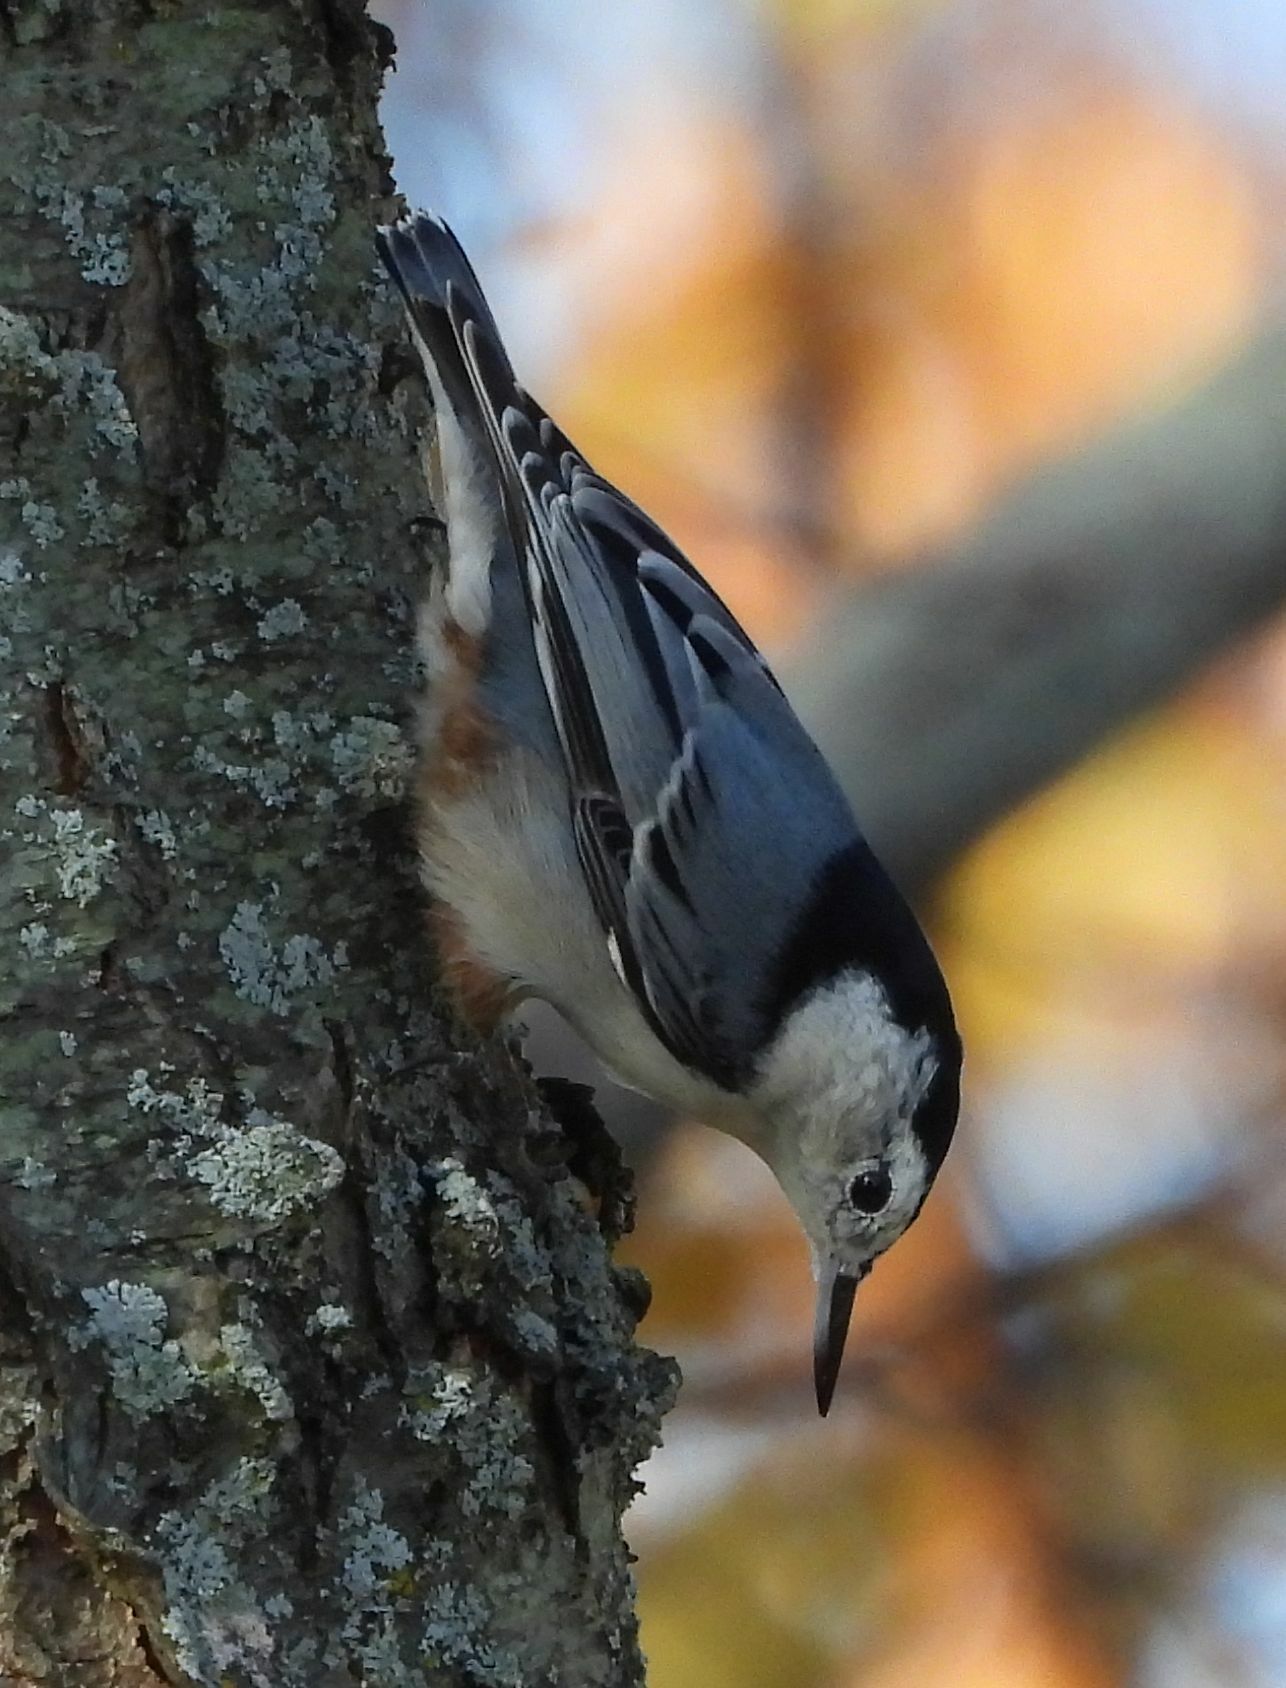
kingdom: Animalia
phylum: Chordata
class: Aves
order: Passeriformes
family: Sittidae
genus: Sitta
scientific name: Sitta carolinensis
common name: White-breasted nuthatch
